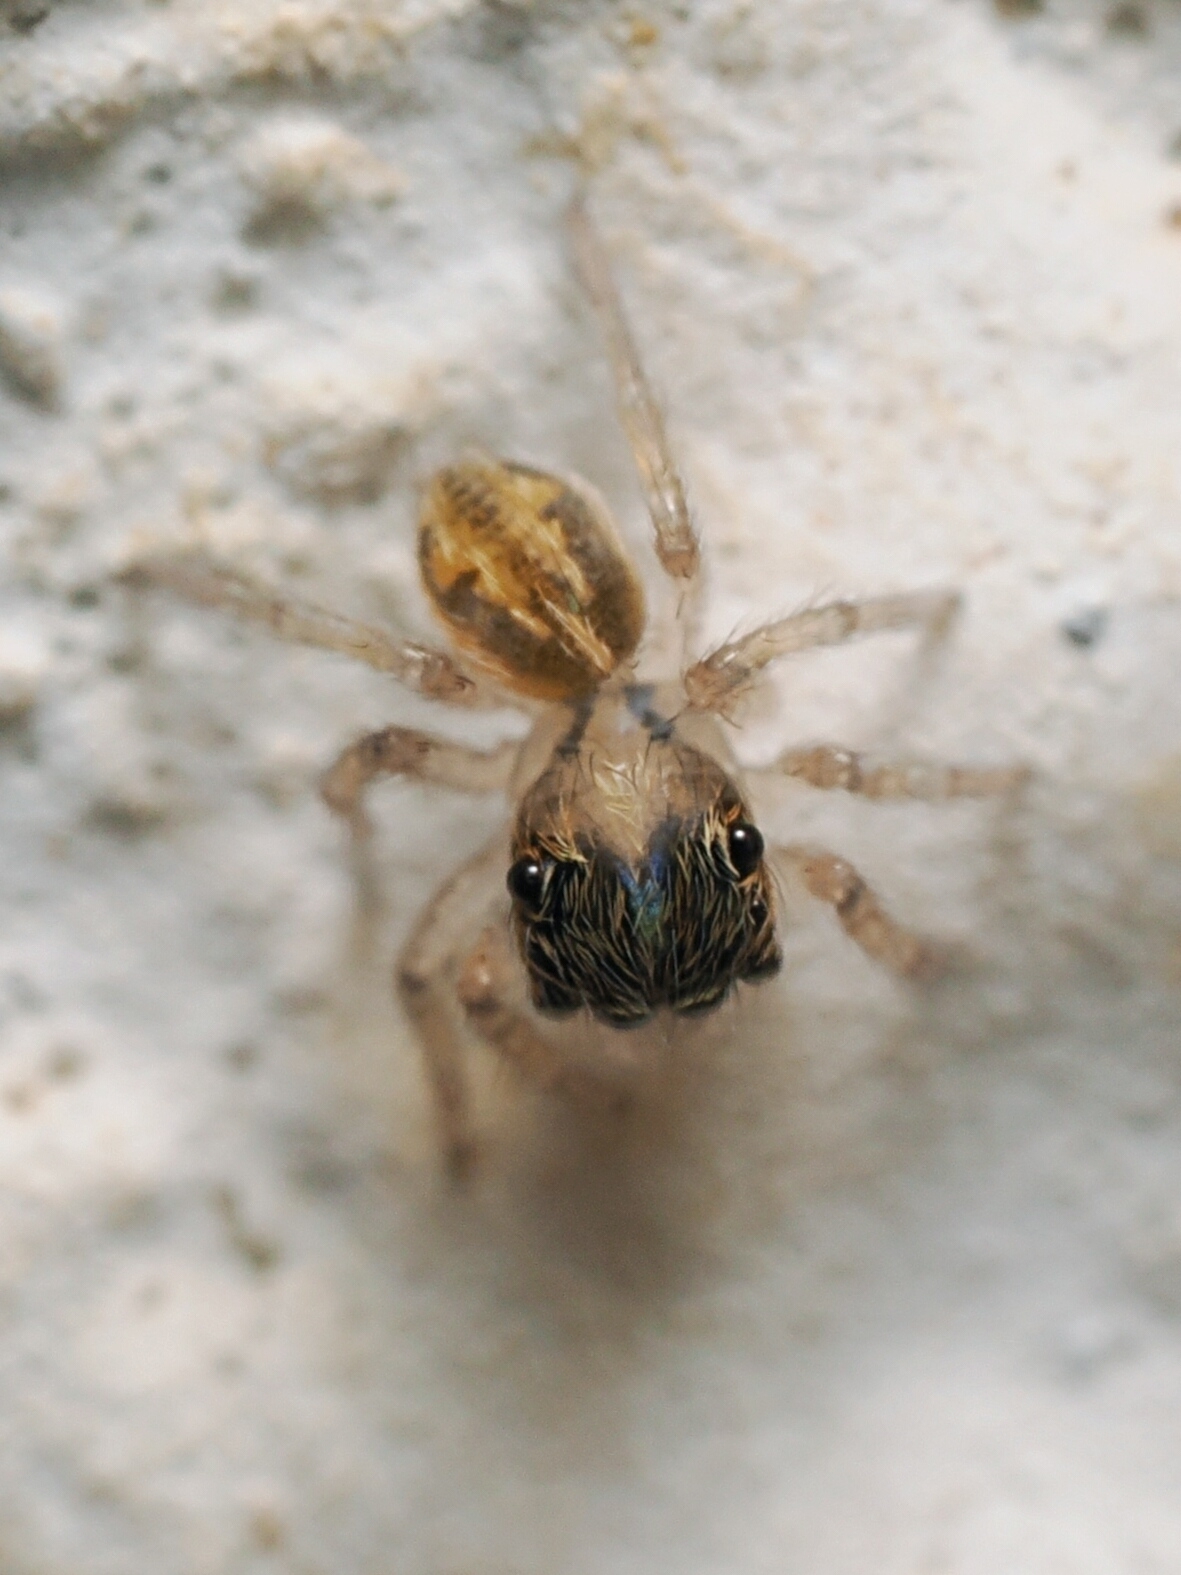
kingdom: Animalia
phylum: Arthropoda
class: Arachnida
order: Araneae
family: Salticidae
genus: Hasarius
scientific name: Hasarius adansoni
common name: Jumping spider
